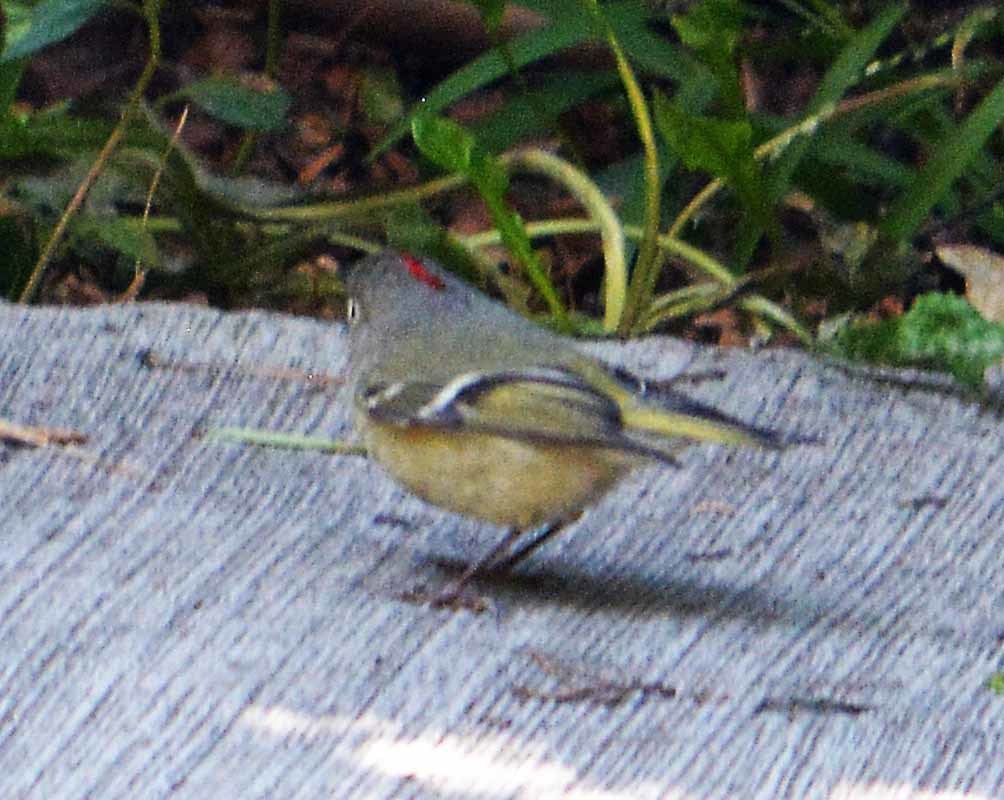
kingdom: Animalia
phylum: Chordata
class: Aves
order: Passeriformes
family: Regulidae
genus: Regulus
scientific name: Regulus calendula
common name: Ruby-crowned kinglet
